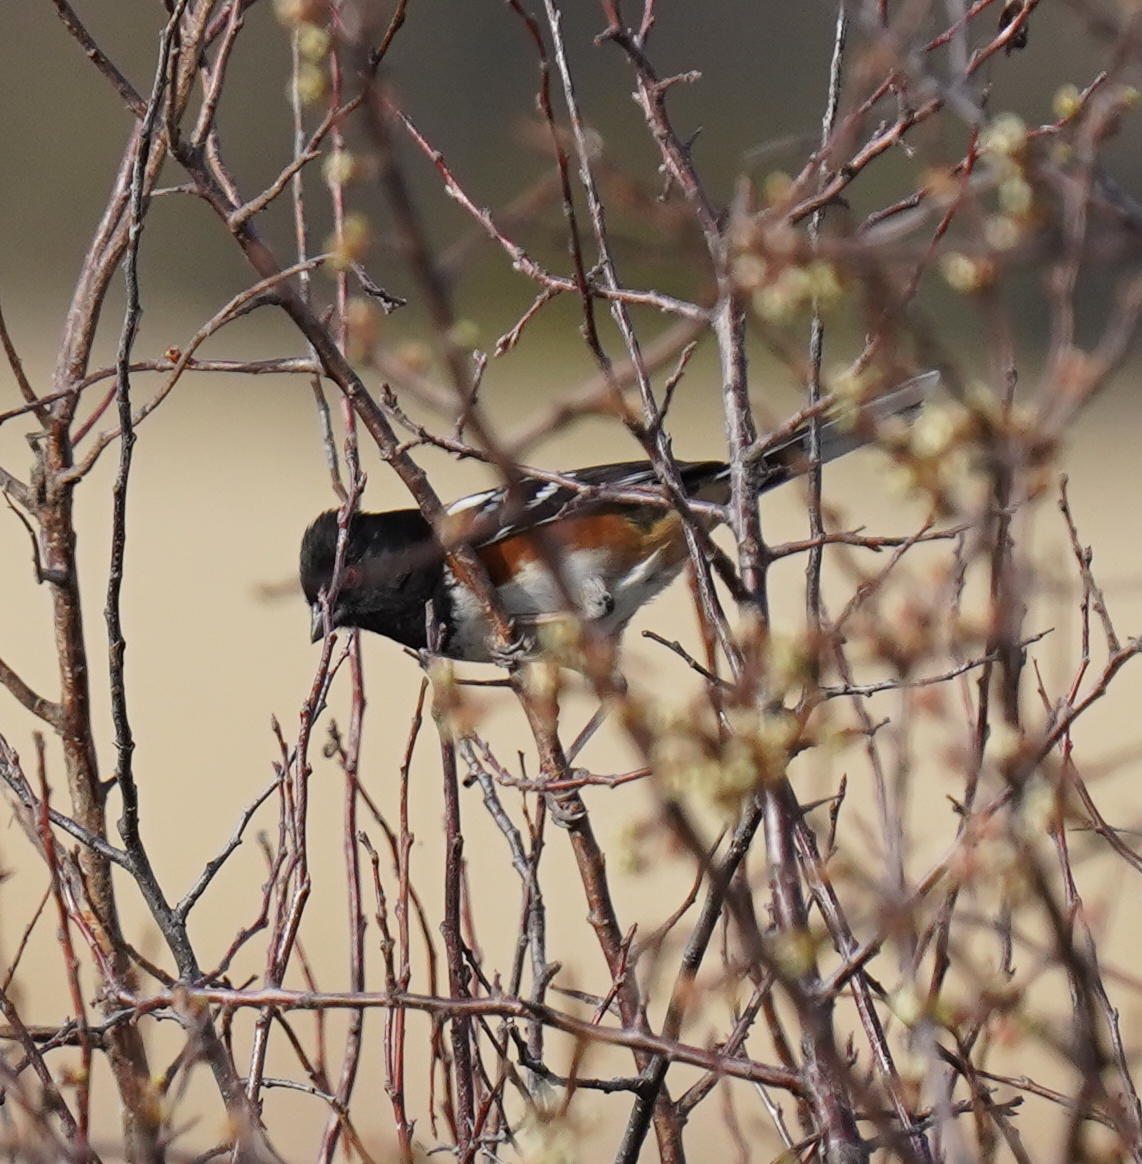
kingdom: Animalia
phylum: Chordata
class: Aves
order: Passeriformes
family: Passerellidae
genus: Pipilo
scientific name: Pipilo maculatus
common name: Spotted towhee
